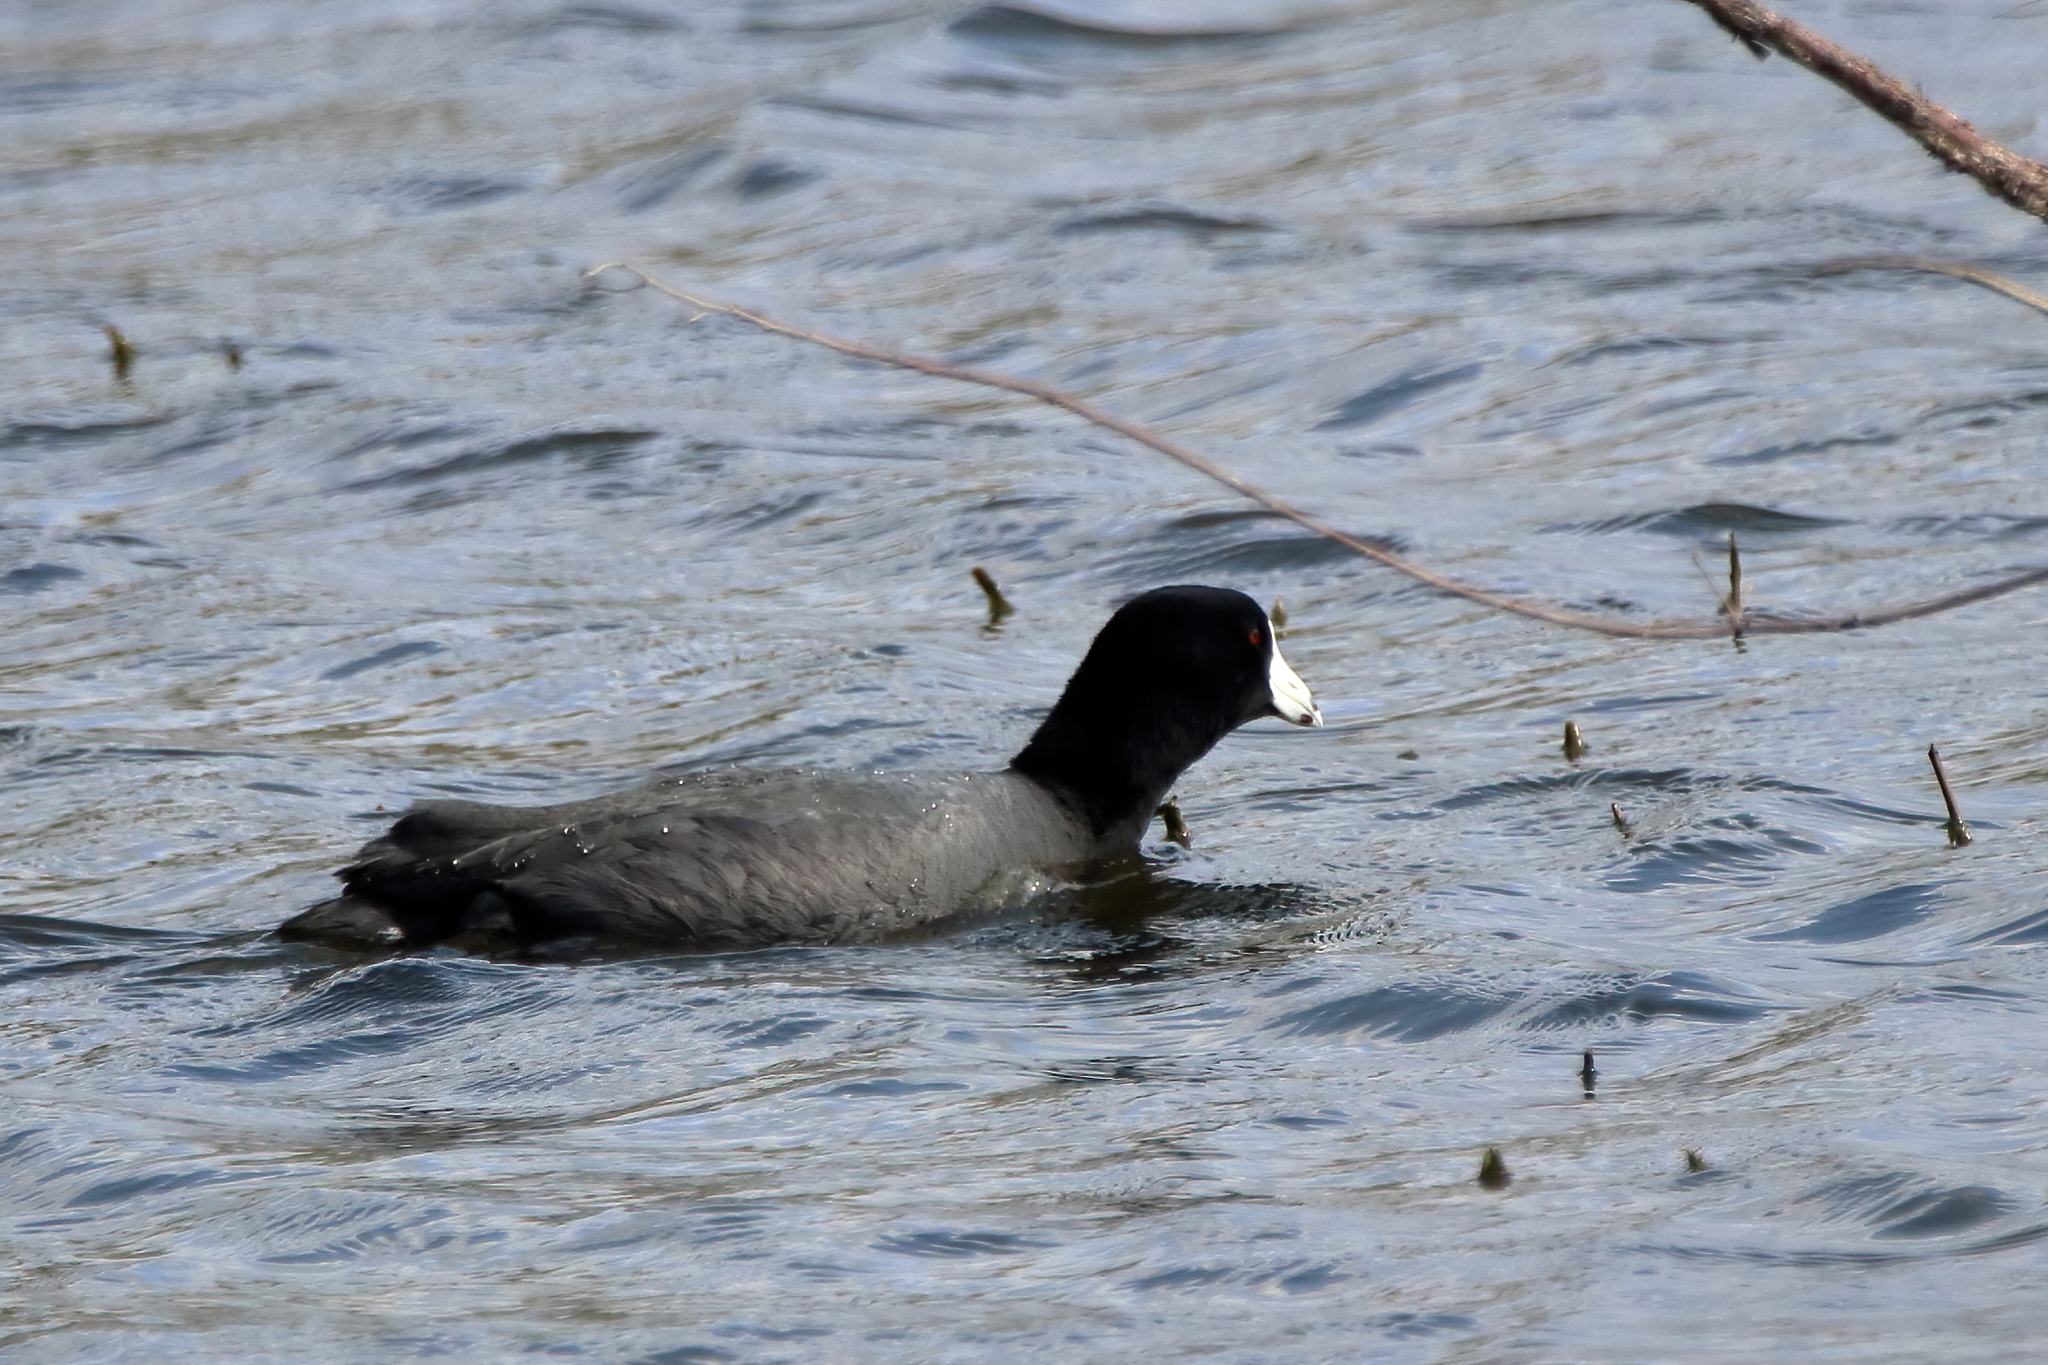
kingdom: Animalia
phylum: Chordata
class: Aves
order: Gruiformes
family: Rallidae
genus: Fulica
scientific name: Fulica americana
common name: American coot
